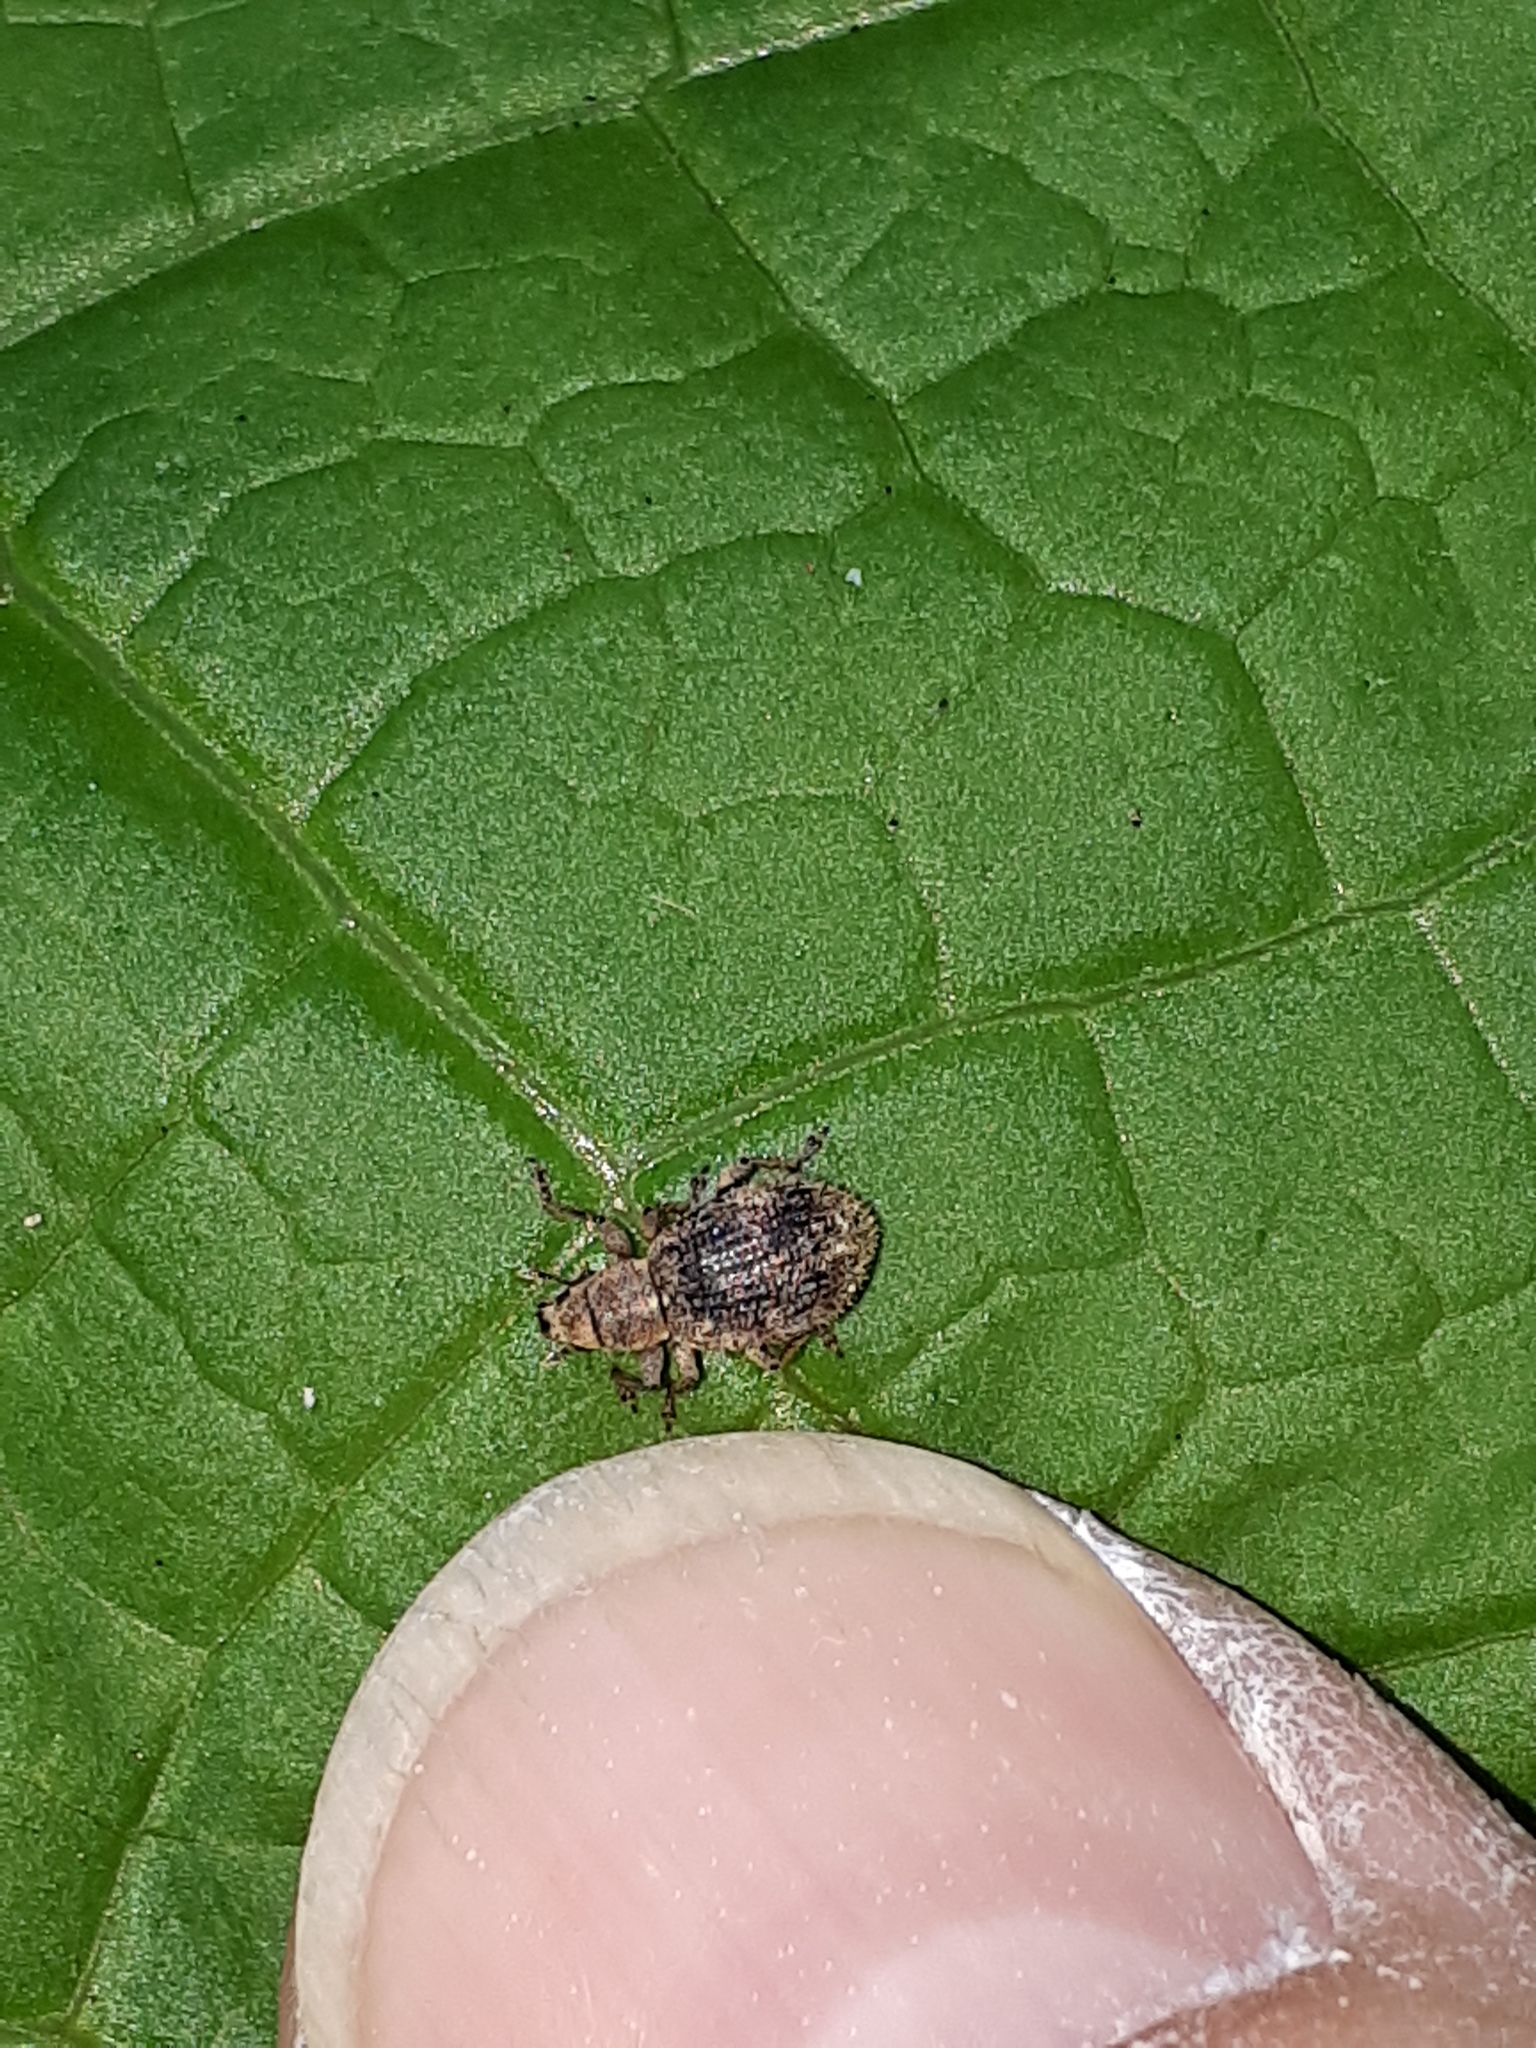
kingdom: Animalia
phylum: Arthropoda
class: Insecta
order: Coleoptera
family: Curculionidae
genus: Sciaphilus
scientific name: Sciaphilus asperatus
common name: Weevil
